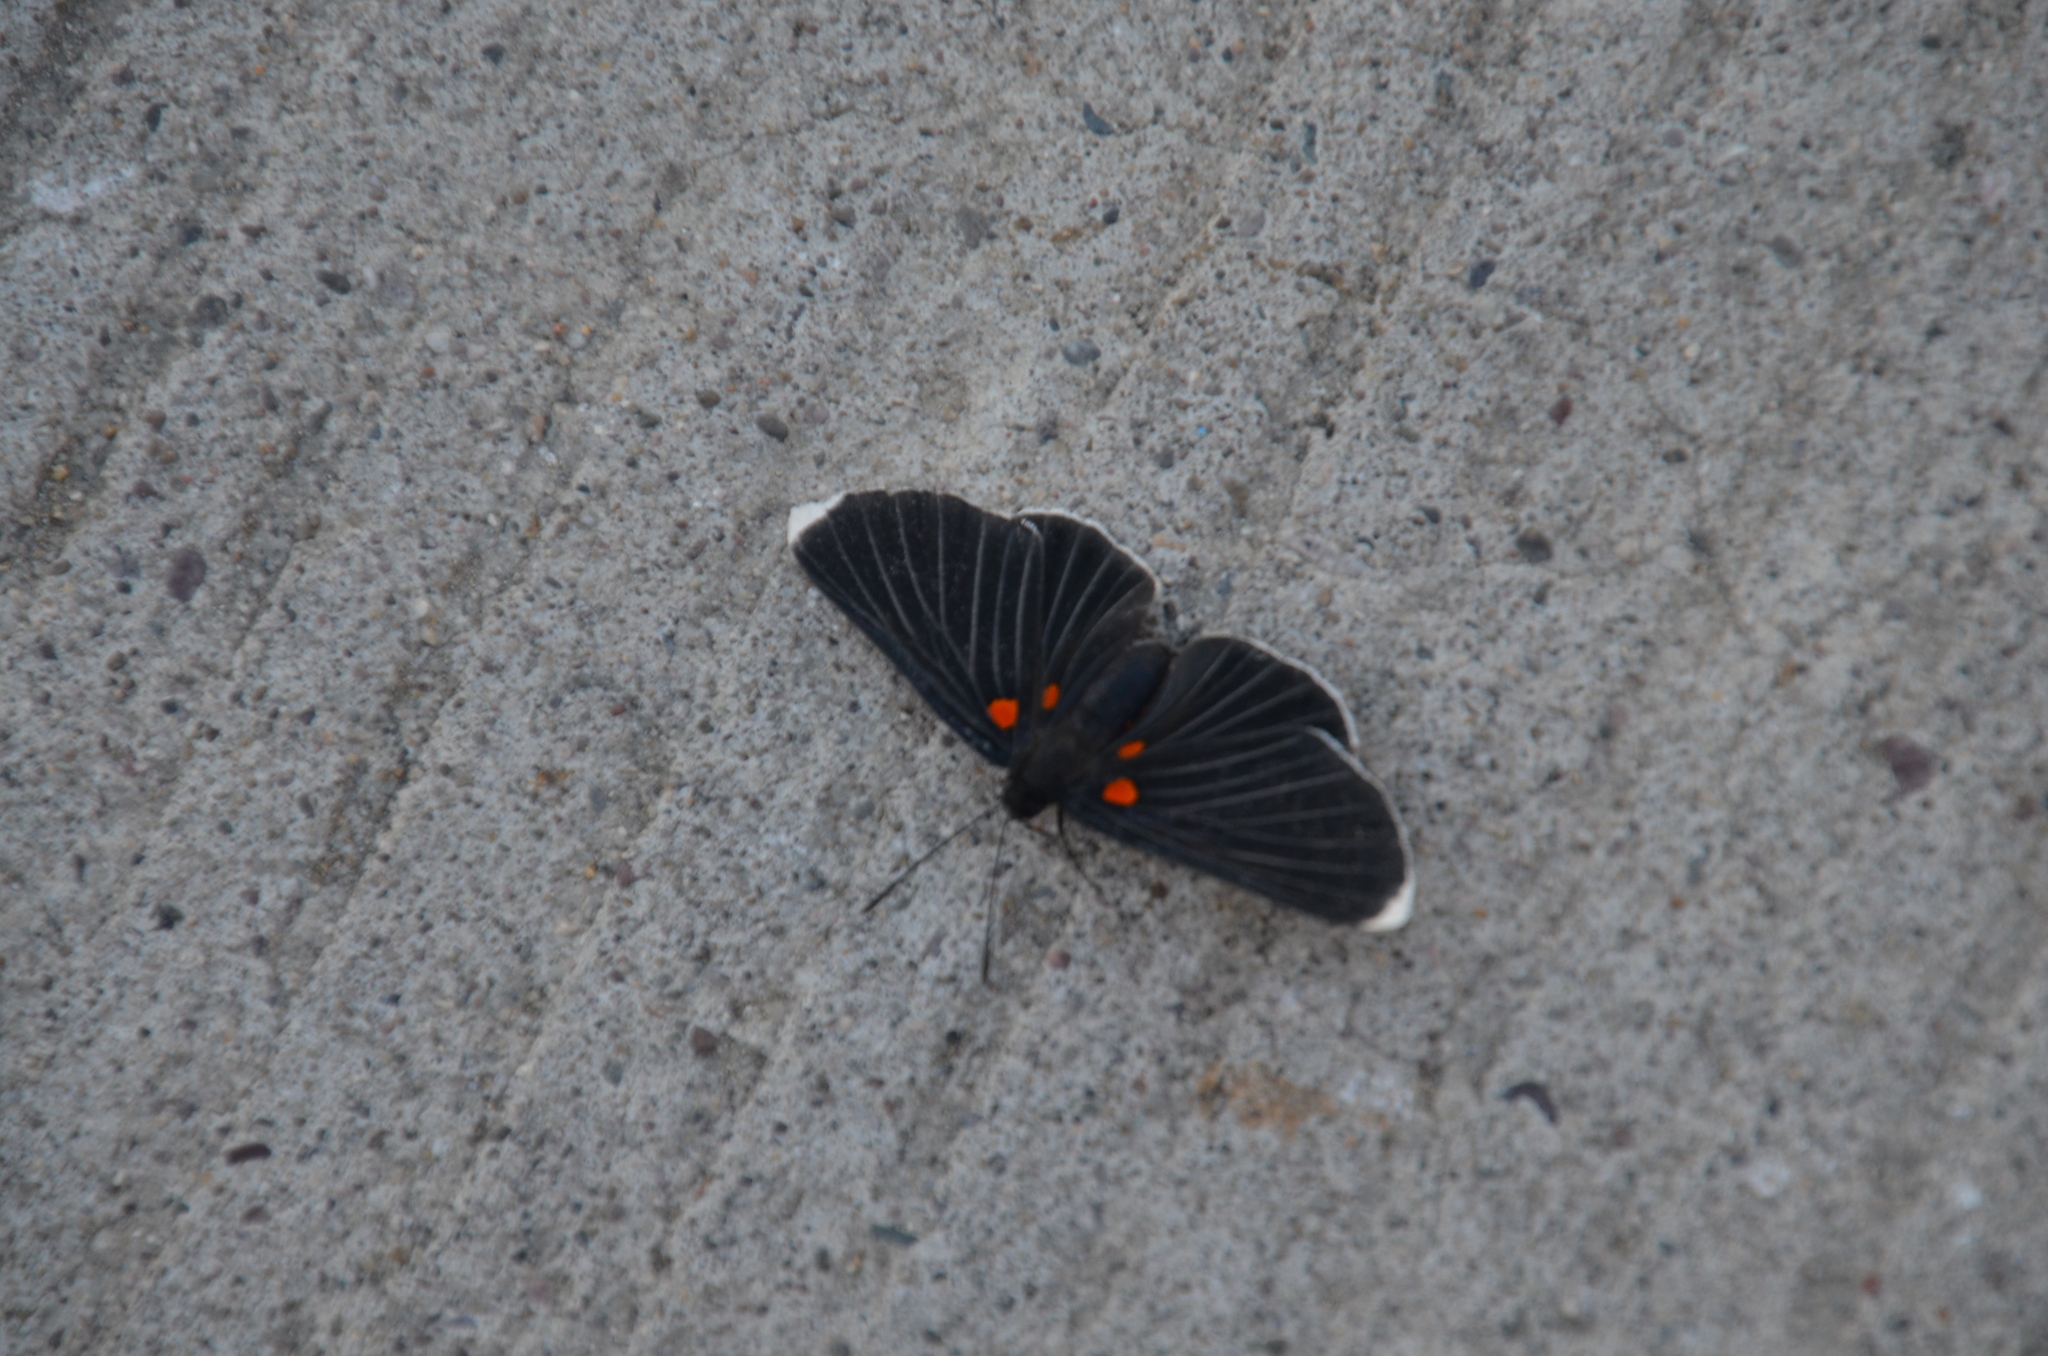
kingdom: Animalia
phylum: Arthropoda
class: Insecta
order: Lepidoptera
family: Lycaenidae
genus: Melanis
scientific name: Melanis
